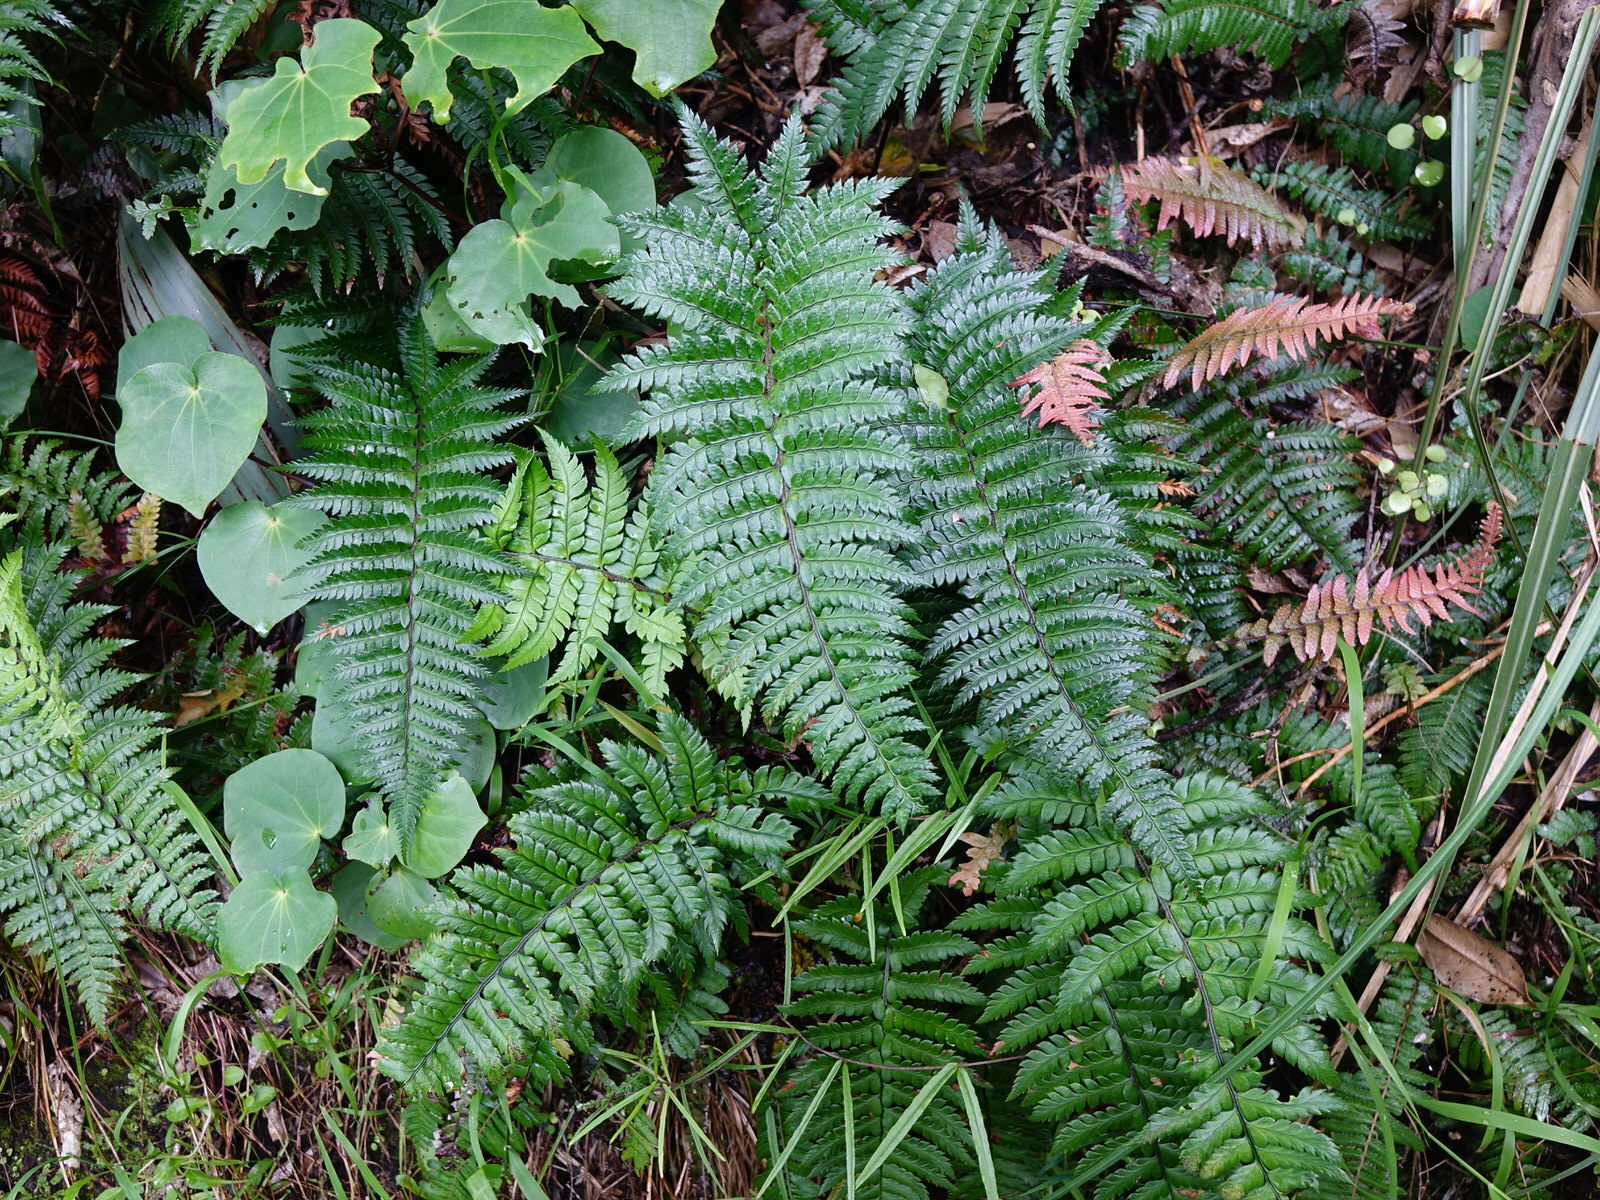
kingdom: Plantae
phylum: Tracheophyta
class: Polypodiopsida
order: Polypodiales
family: Dryopteridaceae
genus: Polystichum
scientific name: Polystichum wawranum
